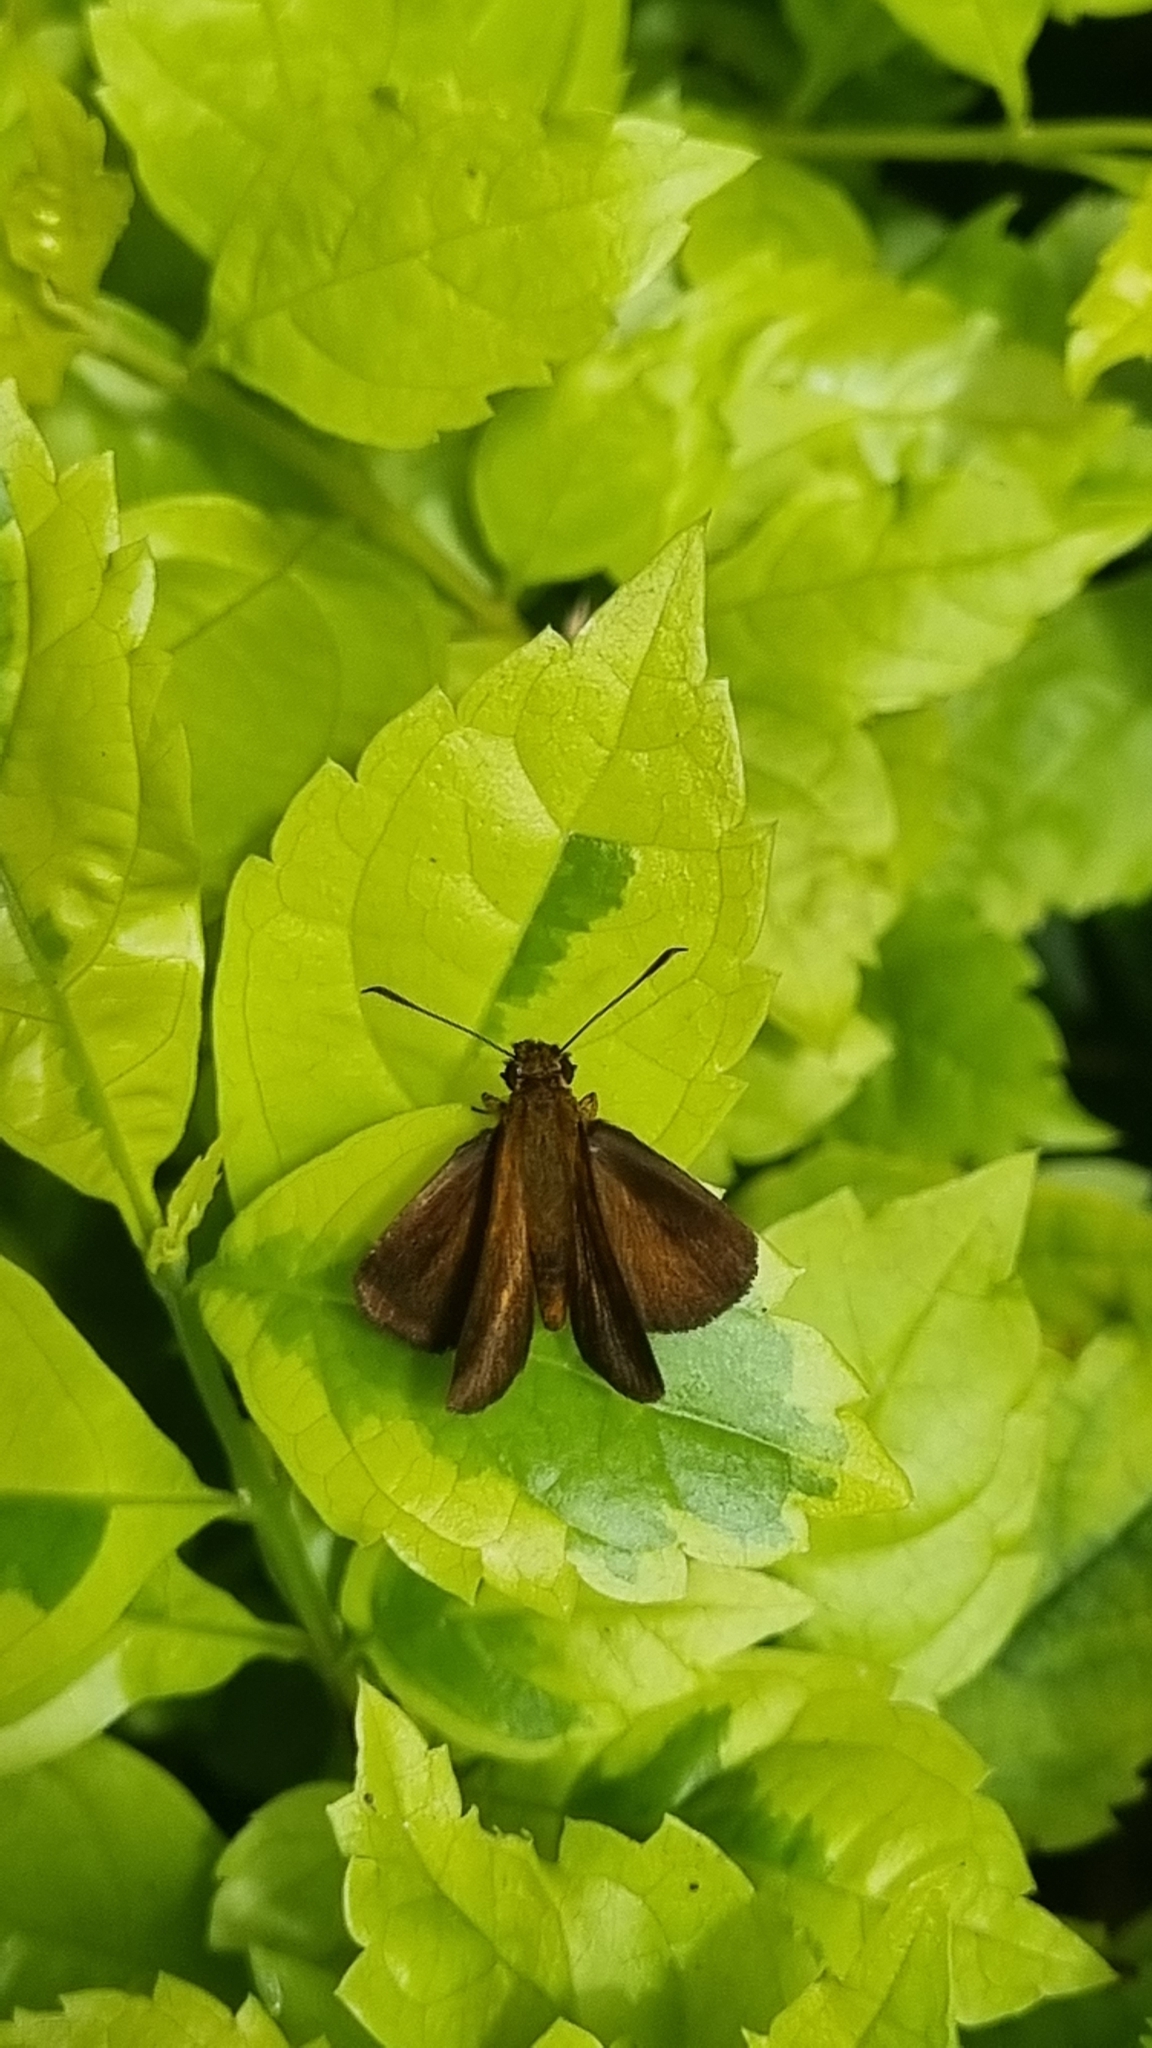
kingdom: Animalia
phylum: Arthropoda
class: Insecta
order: Lepidoptera
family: Hesperiidae
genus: Iambrix
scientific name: Iambrix salsala
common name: Chestnut bob
